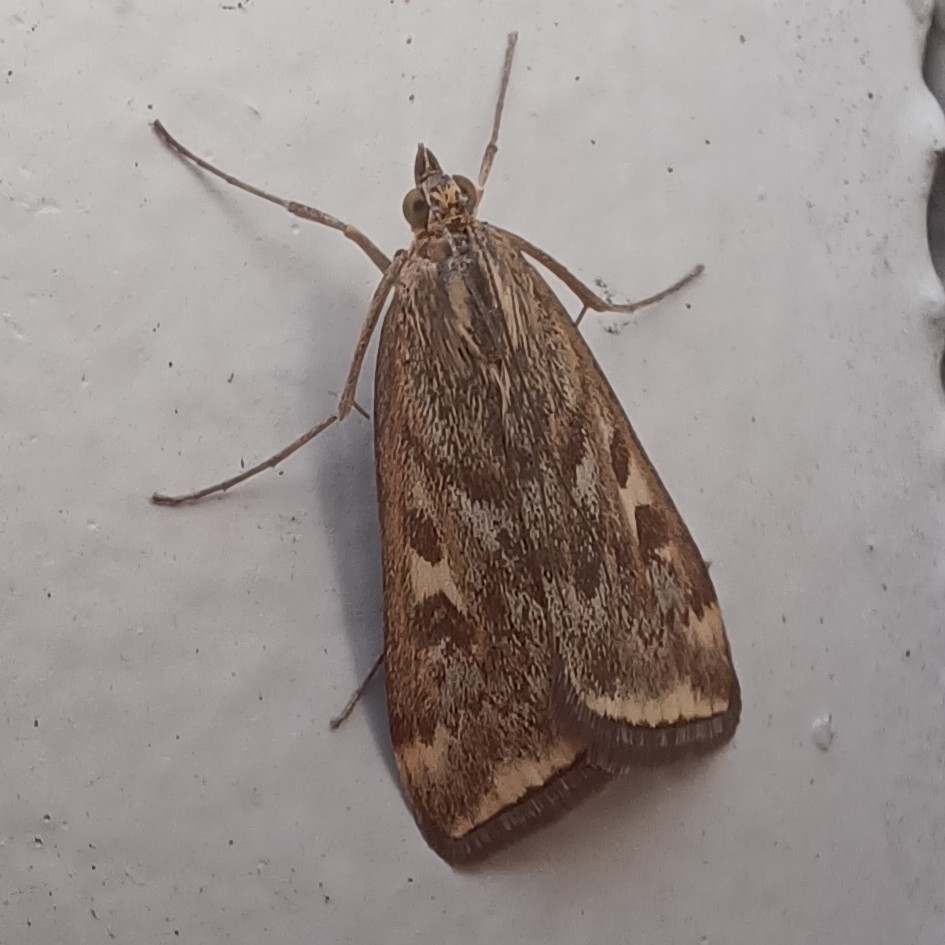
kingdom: Animalia
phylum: Arthropoda
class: Insecta
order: Lepidoptera
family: Crambidae
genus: Loxostege
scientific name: Loxostege
